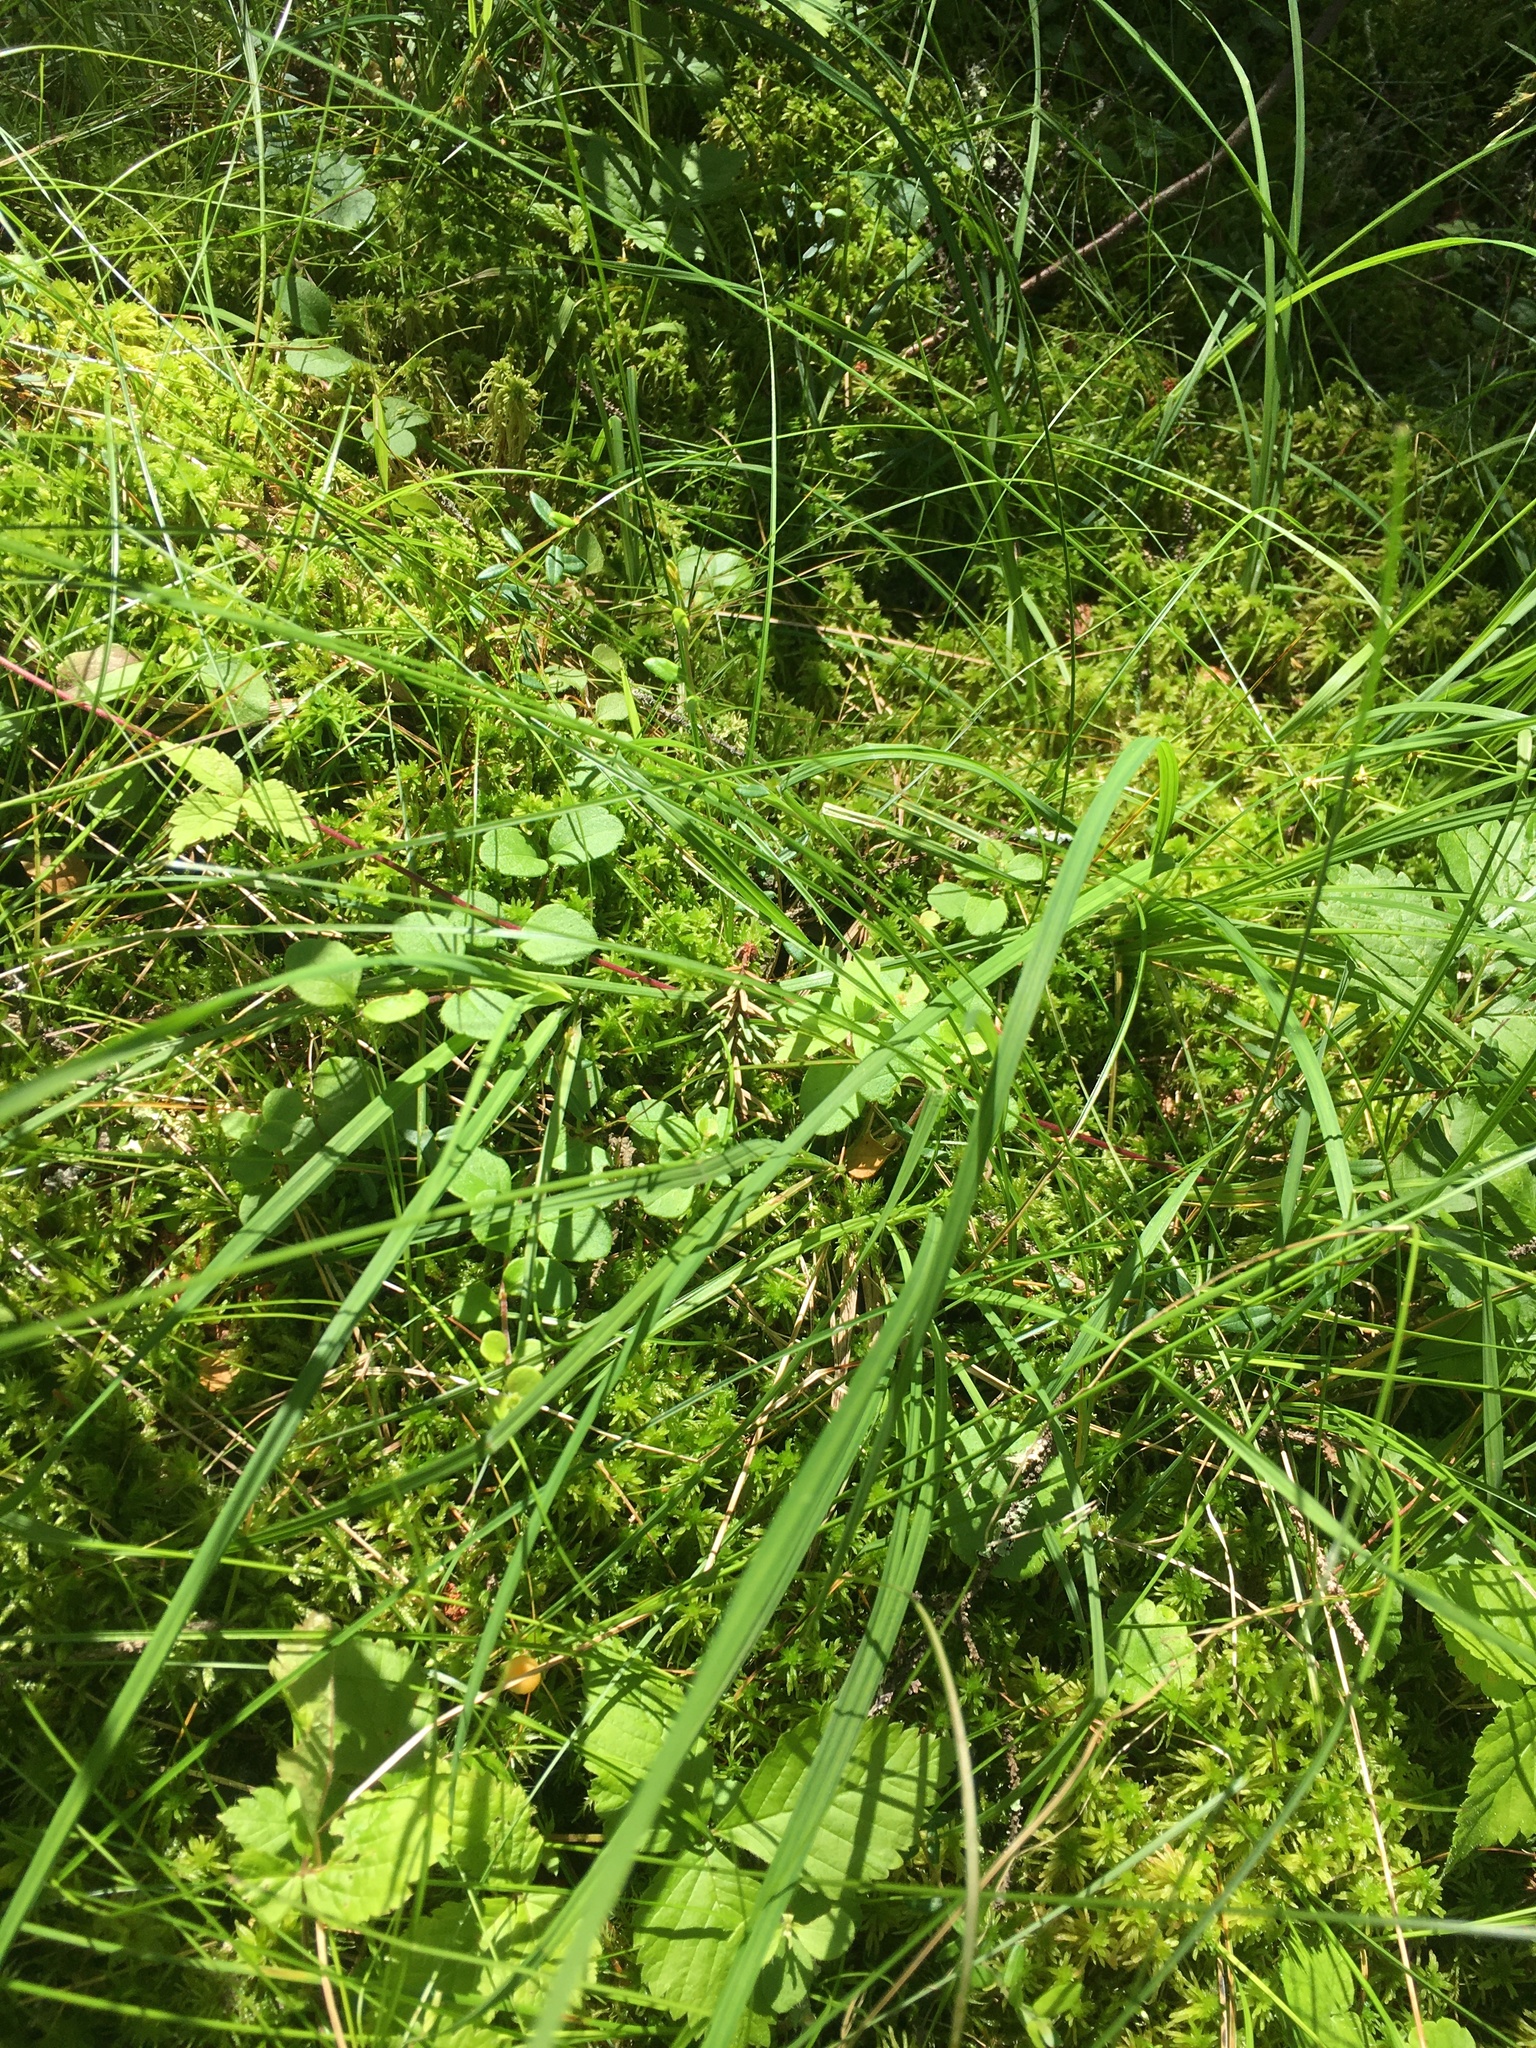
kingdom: Plantae
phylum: Tracheophyta
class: Liliopsida
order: Poales
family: Cyperaceae
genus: Carex
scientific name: Carex magellanica
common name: Bog sedge
